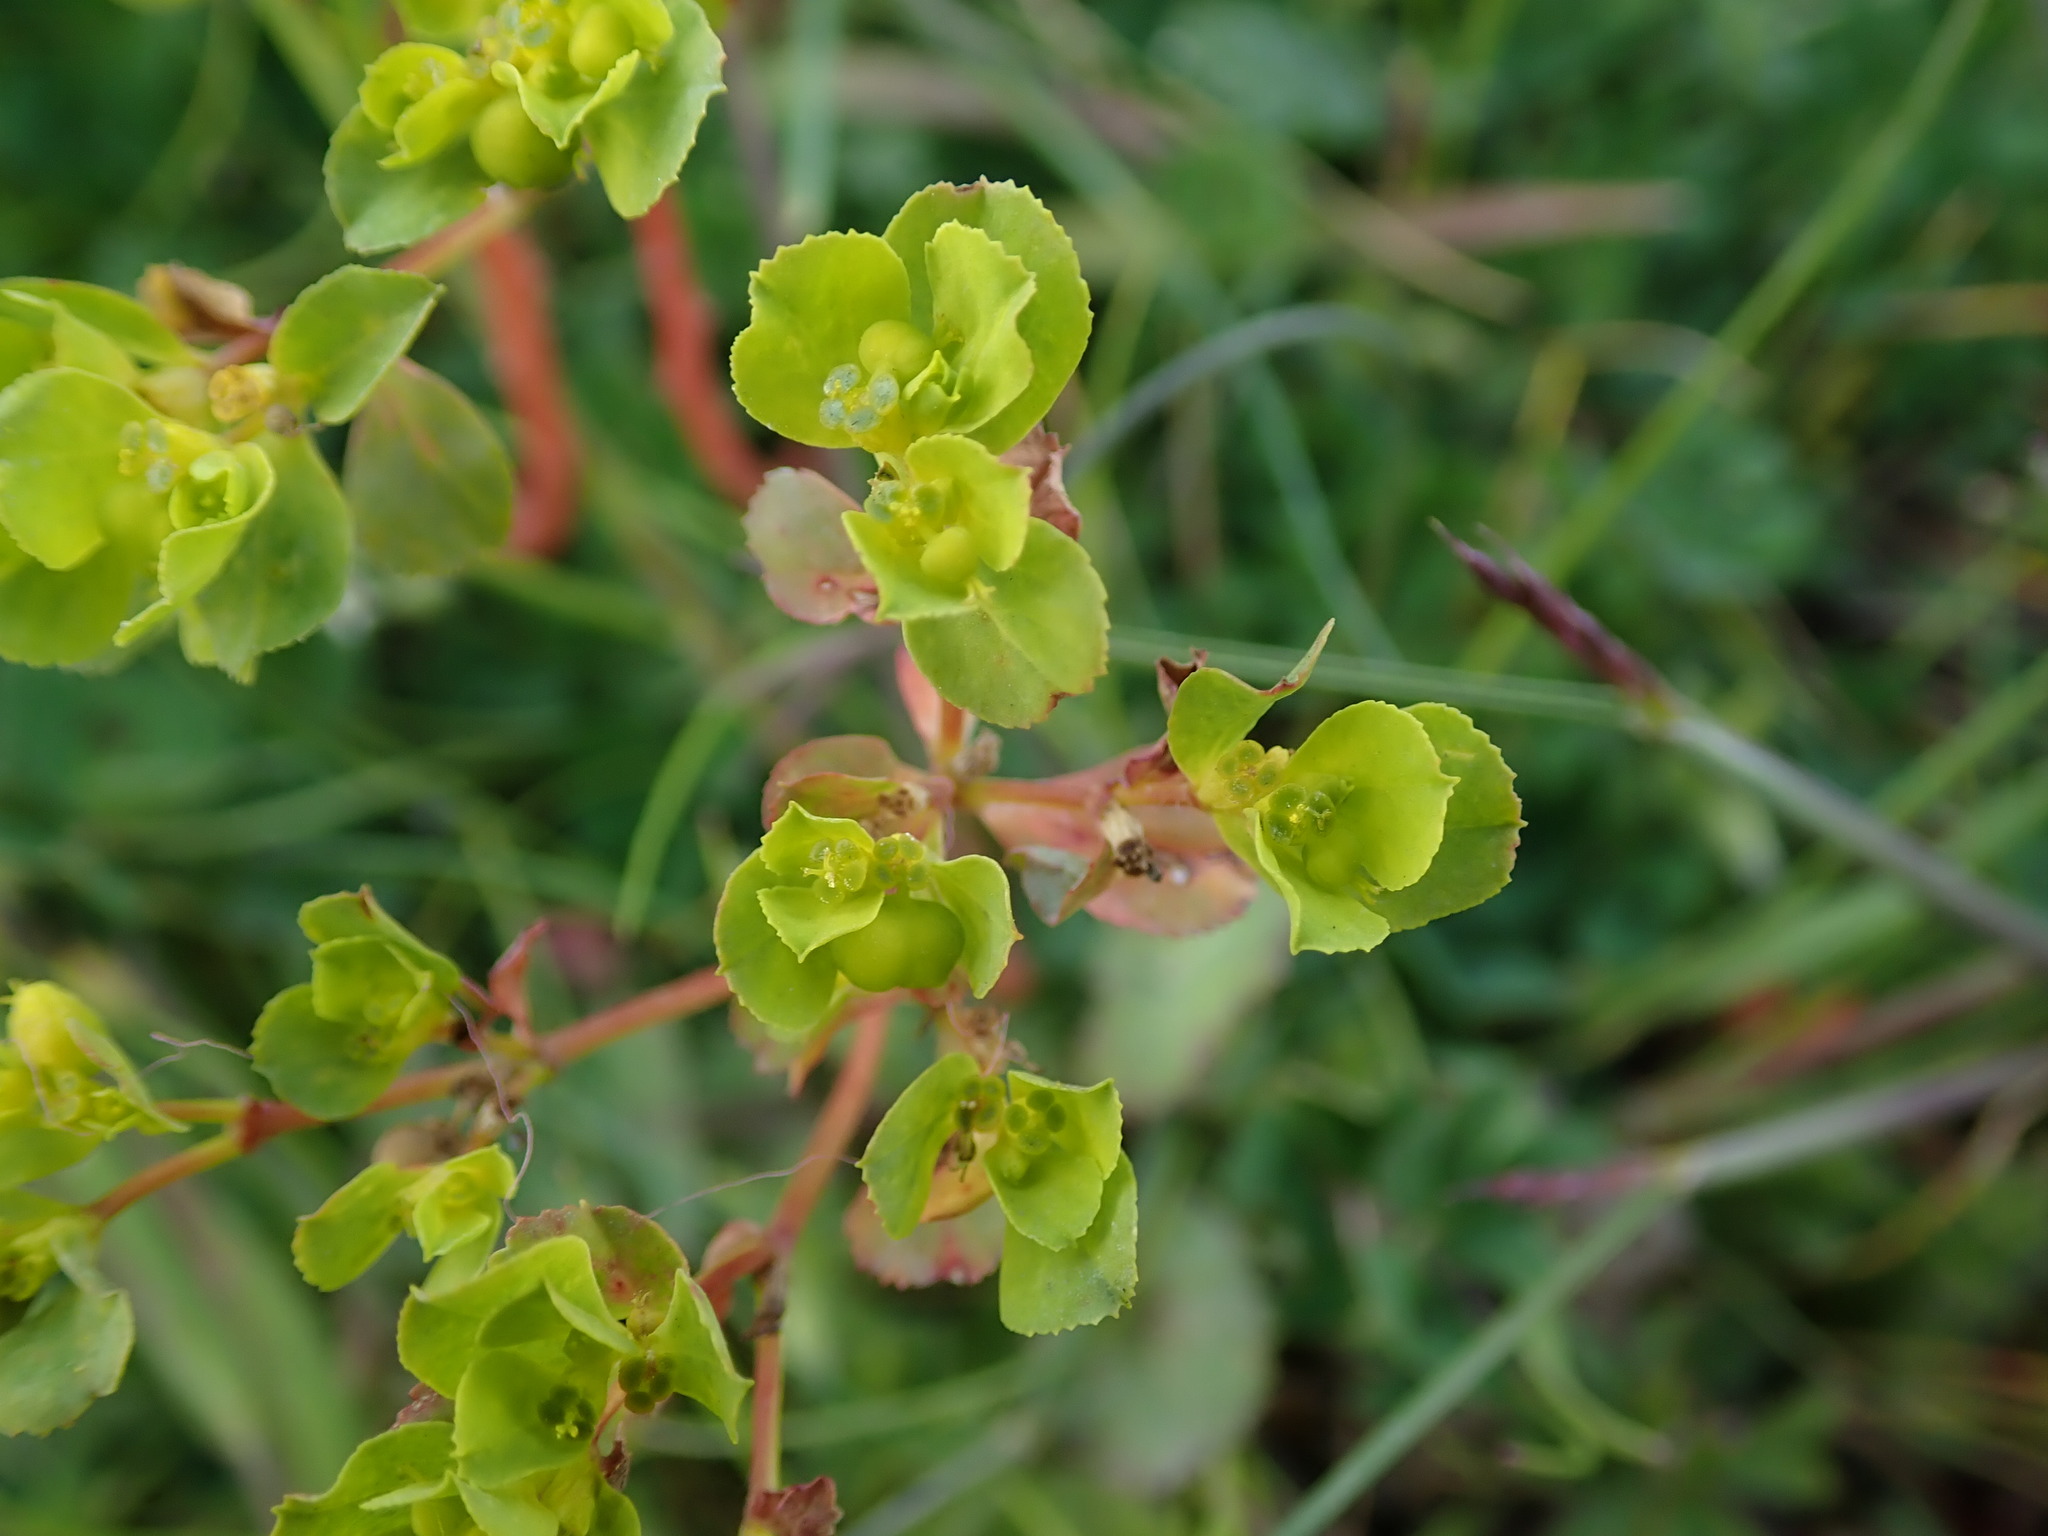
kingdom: Plantae
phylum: Tracheophyta
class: Magnoliopsida
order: Malpighiales
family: Euphorbiaceae
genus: Euphorbia
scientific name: Euphorbia helioscopia
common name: Sun spurge
